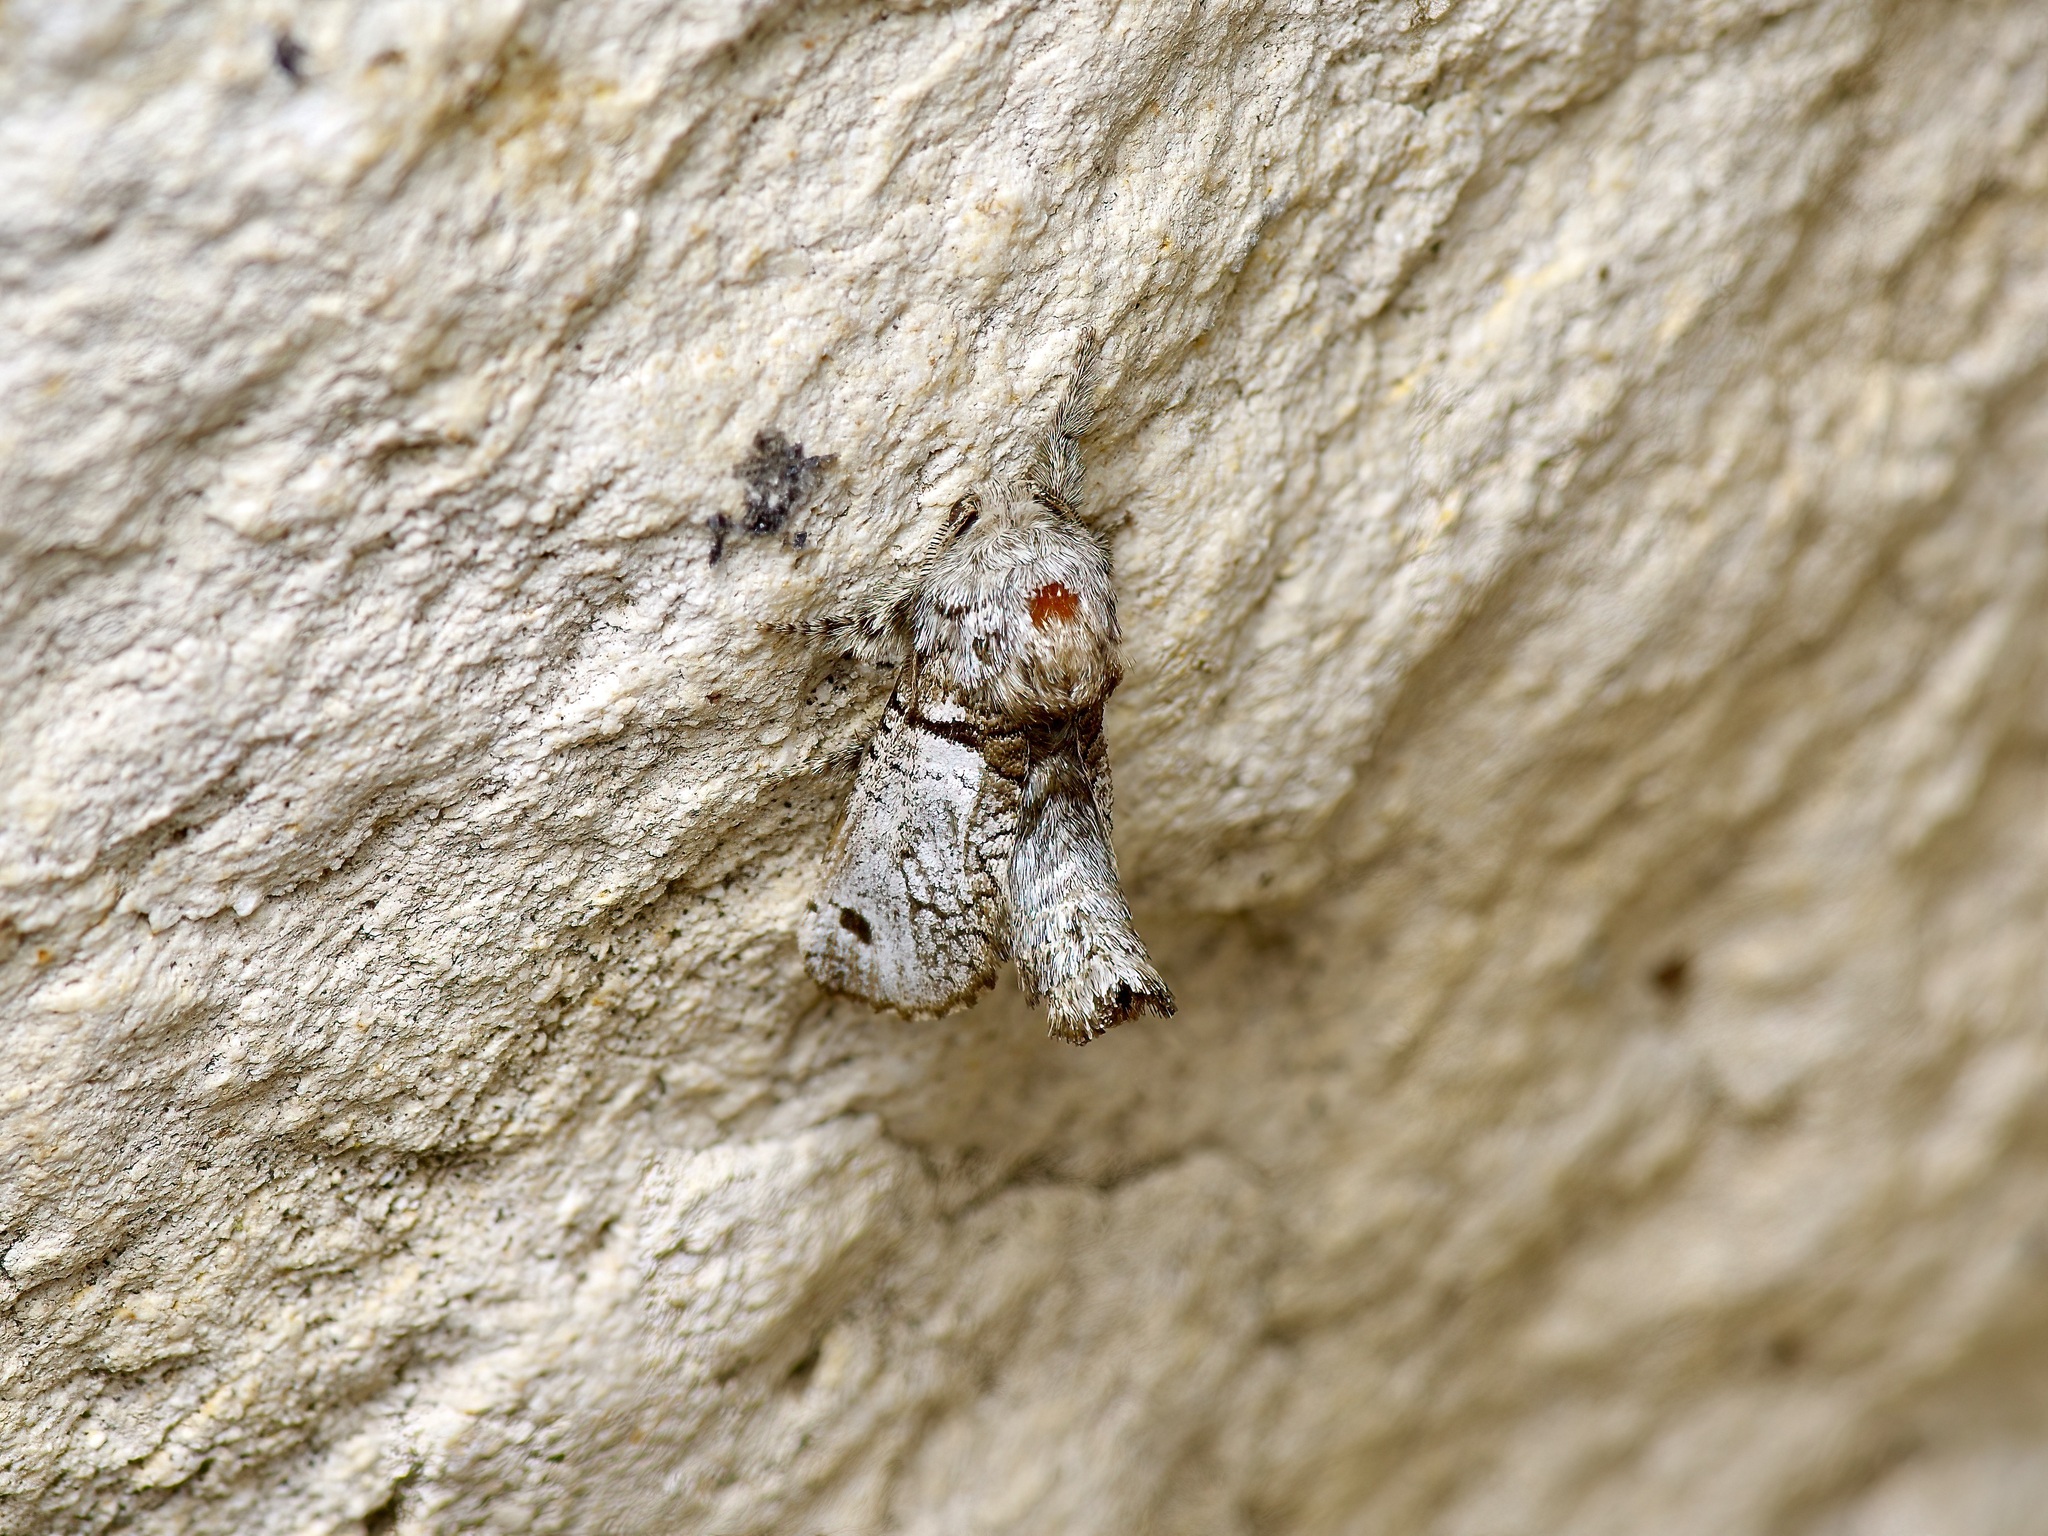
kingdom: Animalia
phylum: Arthropoda
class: Insecta
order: Lepidoptera
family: Cossidae
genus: Inguromorpha
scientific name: Inguromorpha
